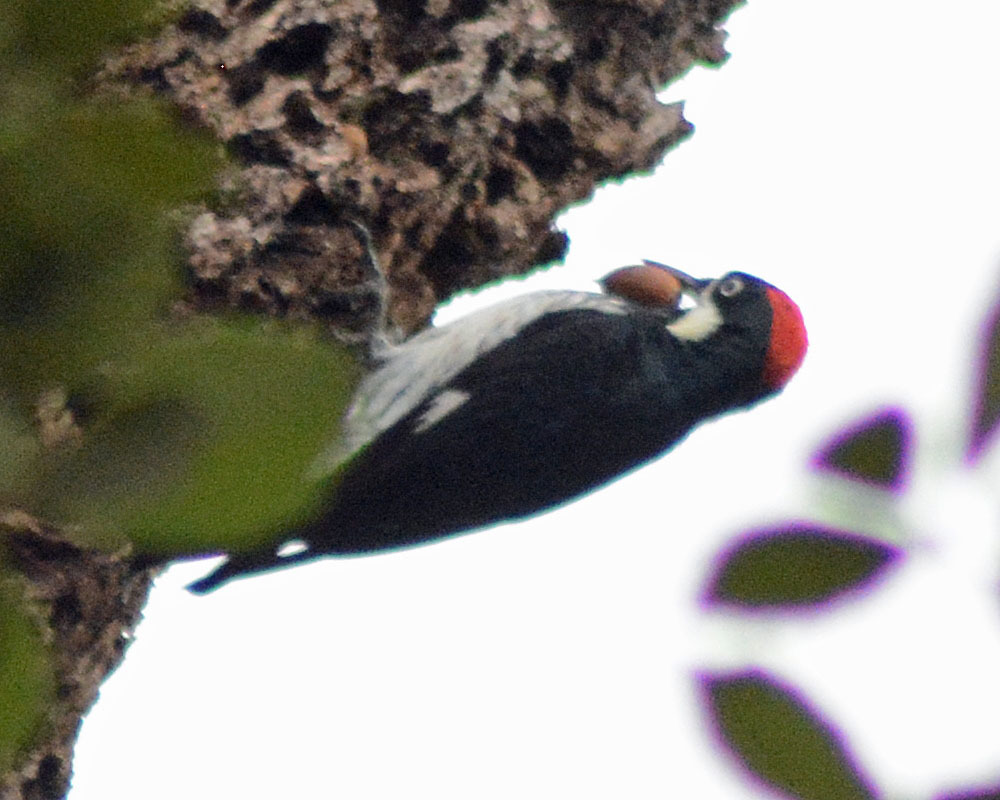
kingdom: Animalia
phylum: Chordata
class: Aves
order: Piciformes
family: Picidae
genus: Melanerpes
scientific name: Melanerpes formicivorus
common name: Acorn woodpecker
